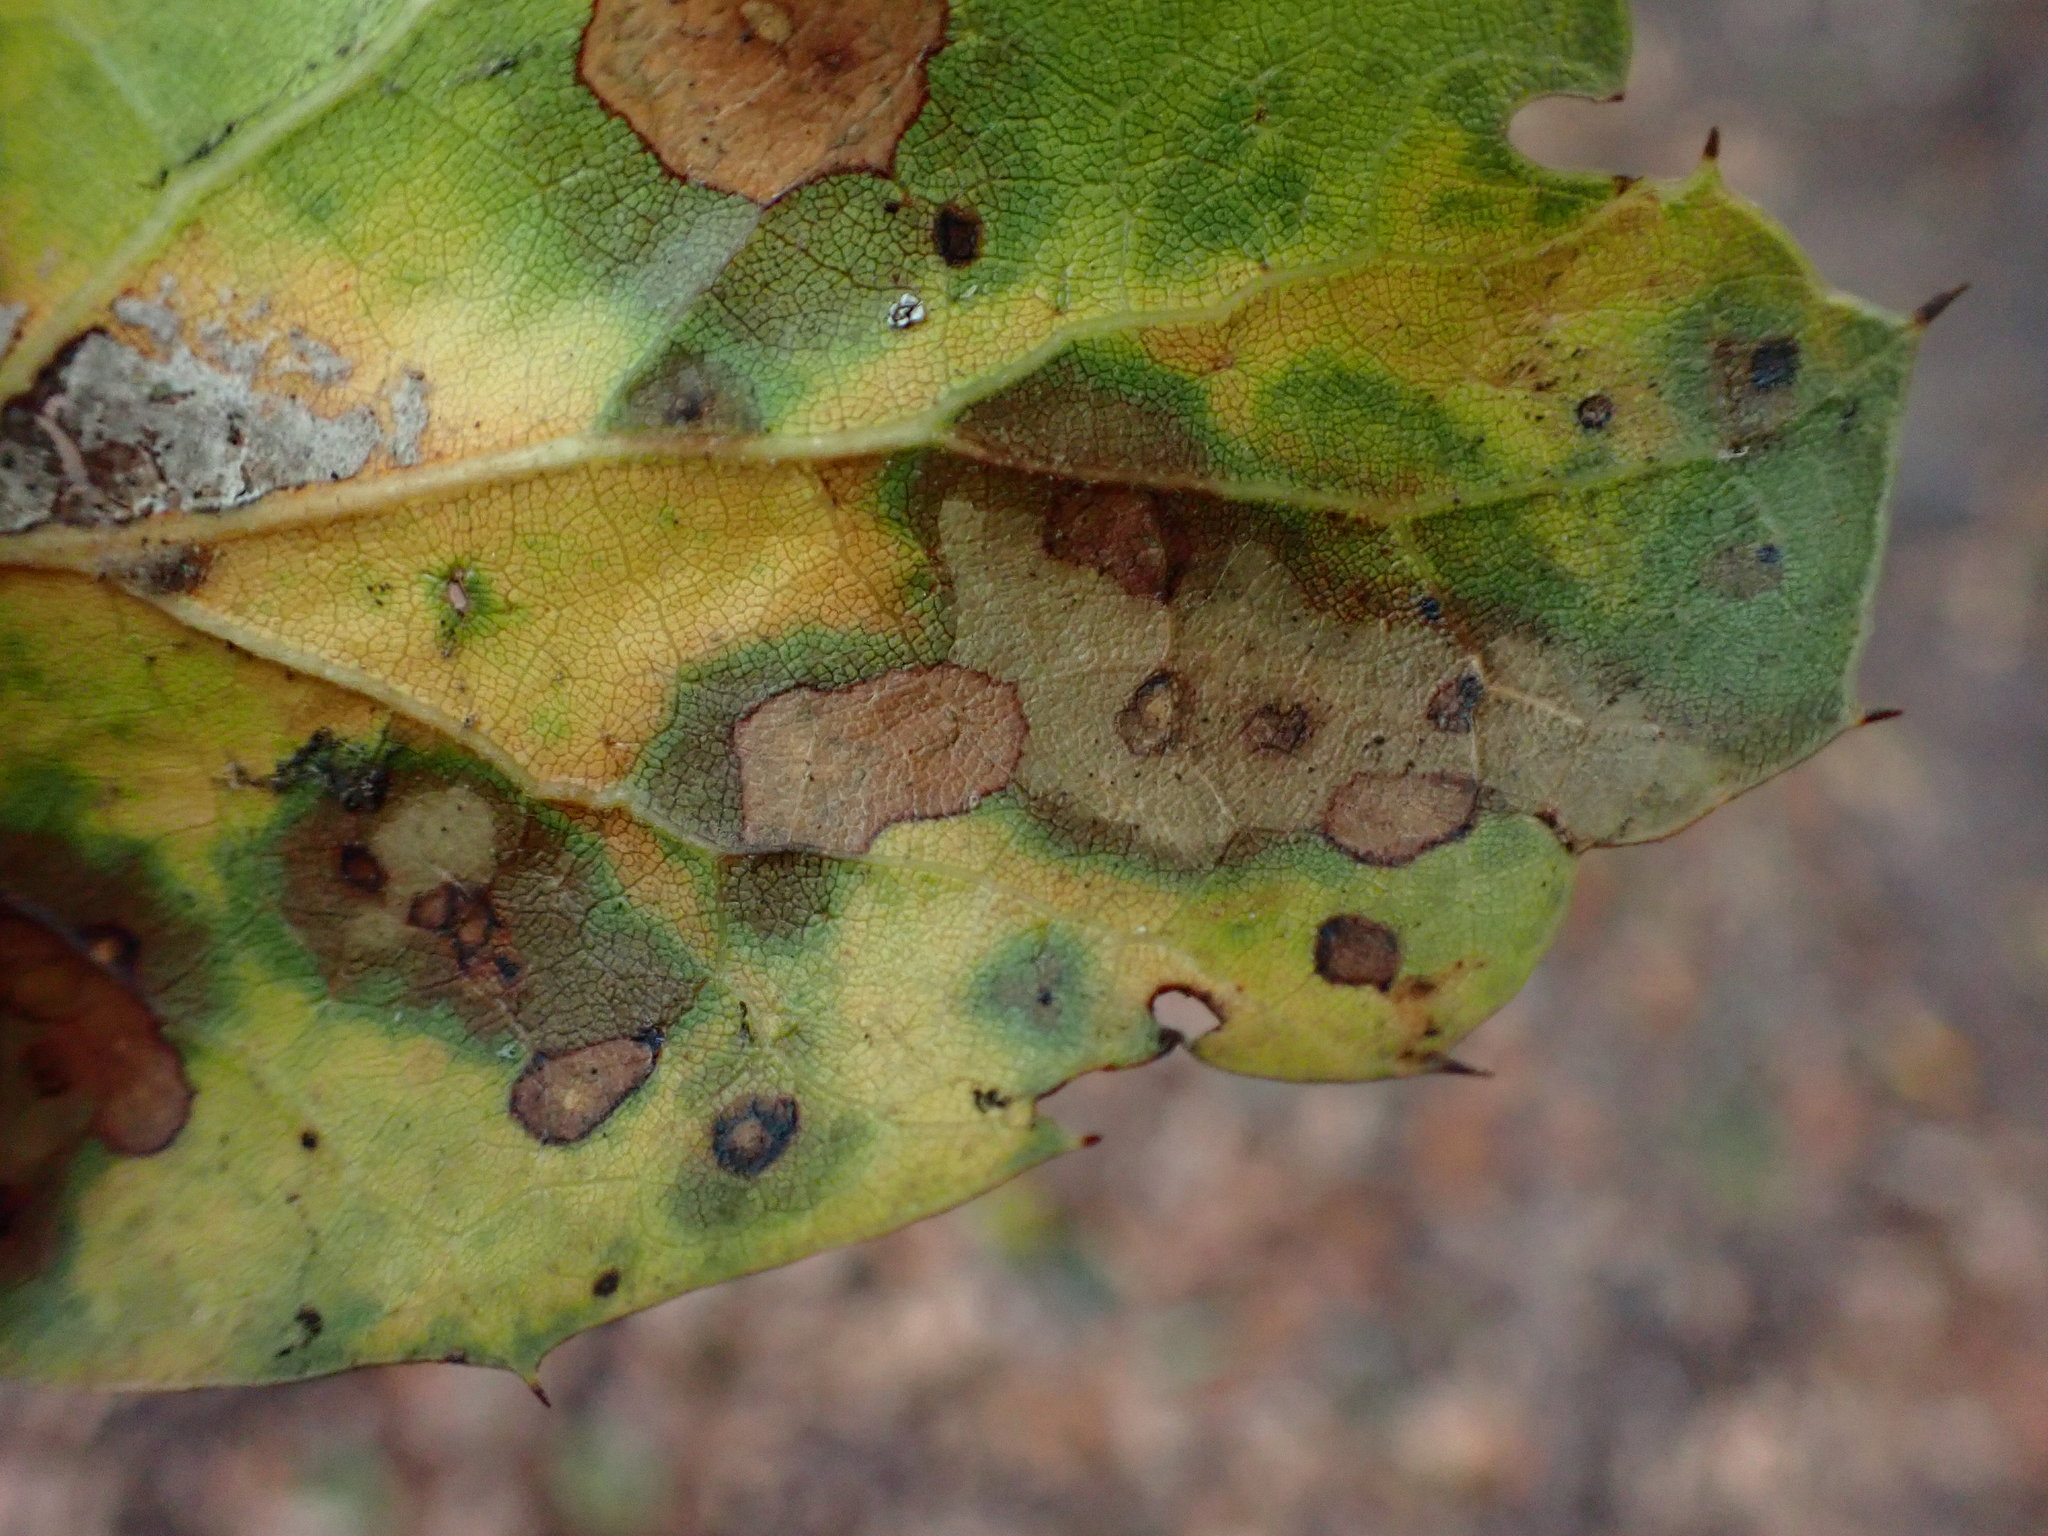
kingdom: Fungi
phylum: Ascomycota
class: Sordariomycetes
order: Diaporthales
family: Tubakiaceae
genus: Tubakia
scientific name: Tubakia californica
